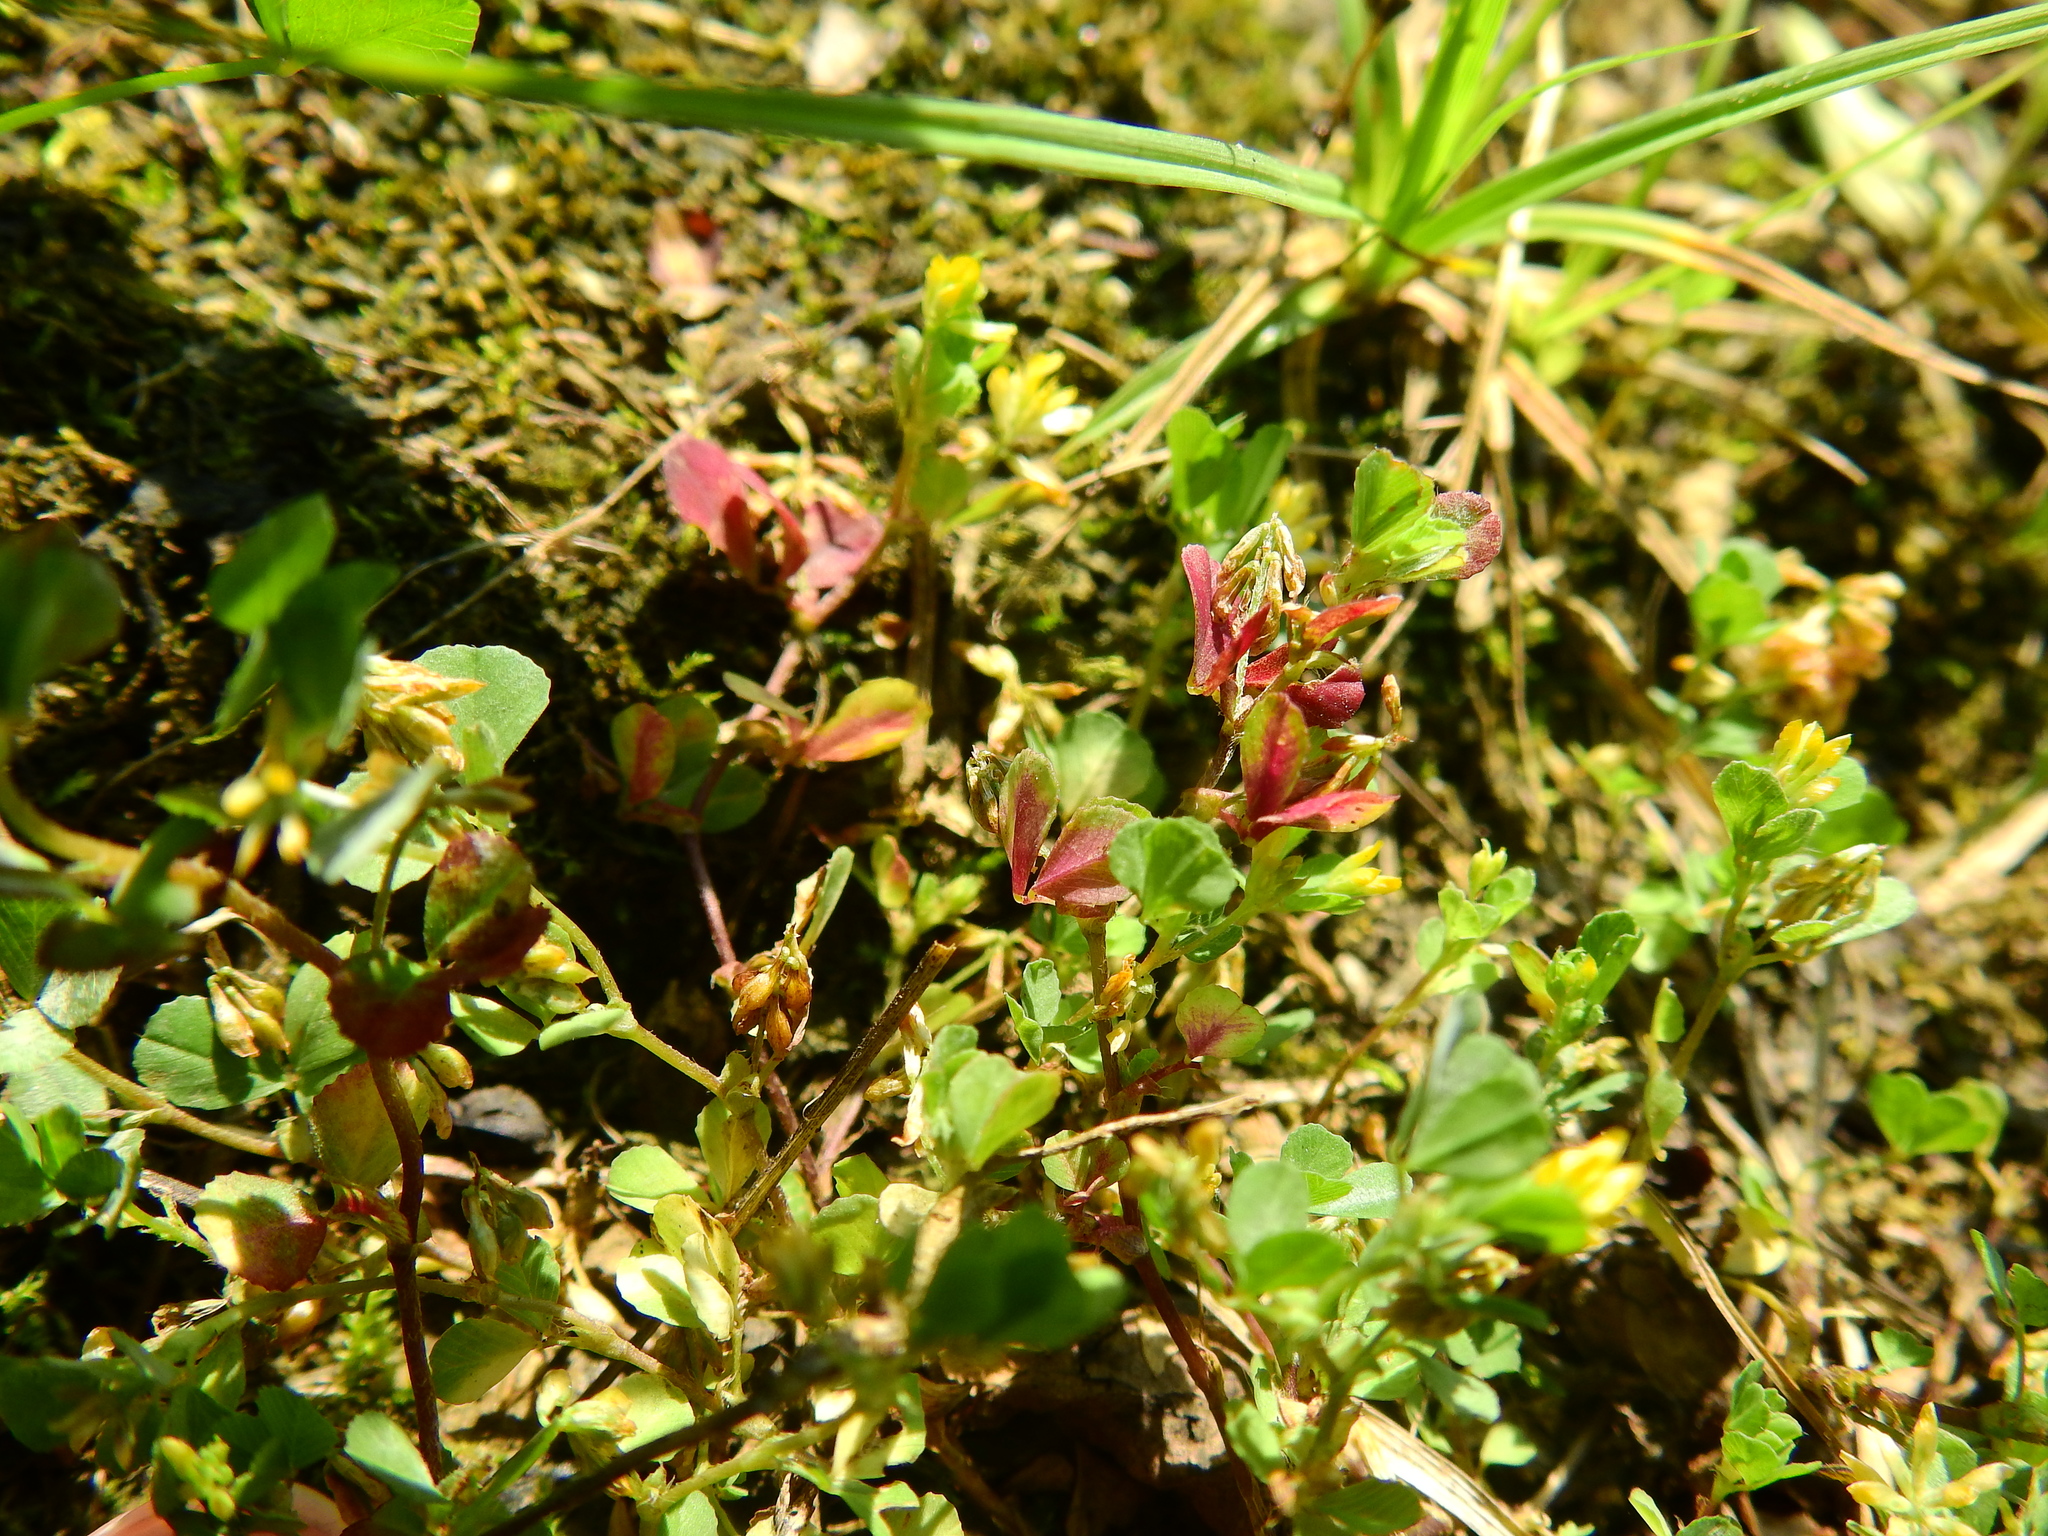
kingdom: Plantae
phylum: Tracheophyta
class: Magnoliopsida
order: Fabales
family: Fabaceae
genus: Trifolium
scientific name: Trifolium dubium
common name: Suckling clover
